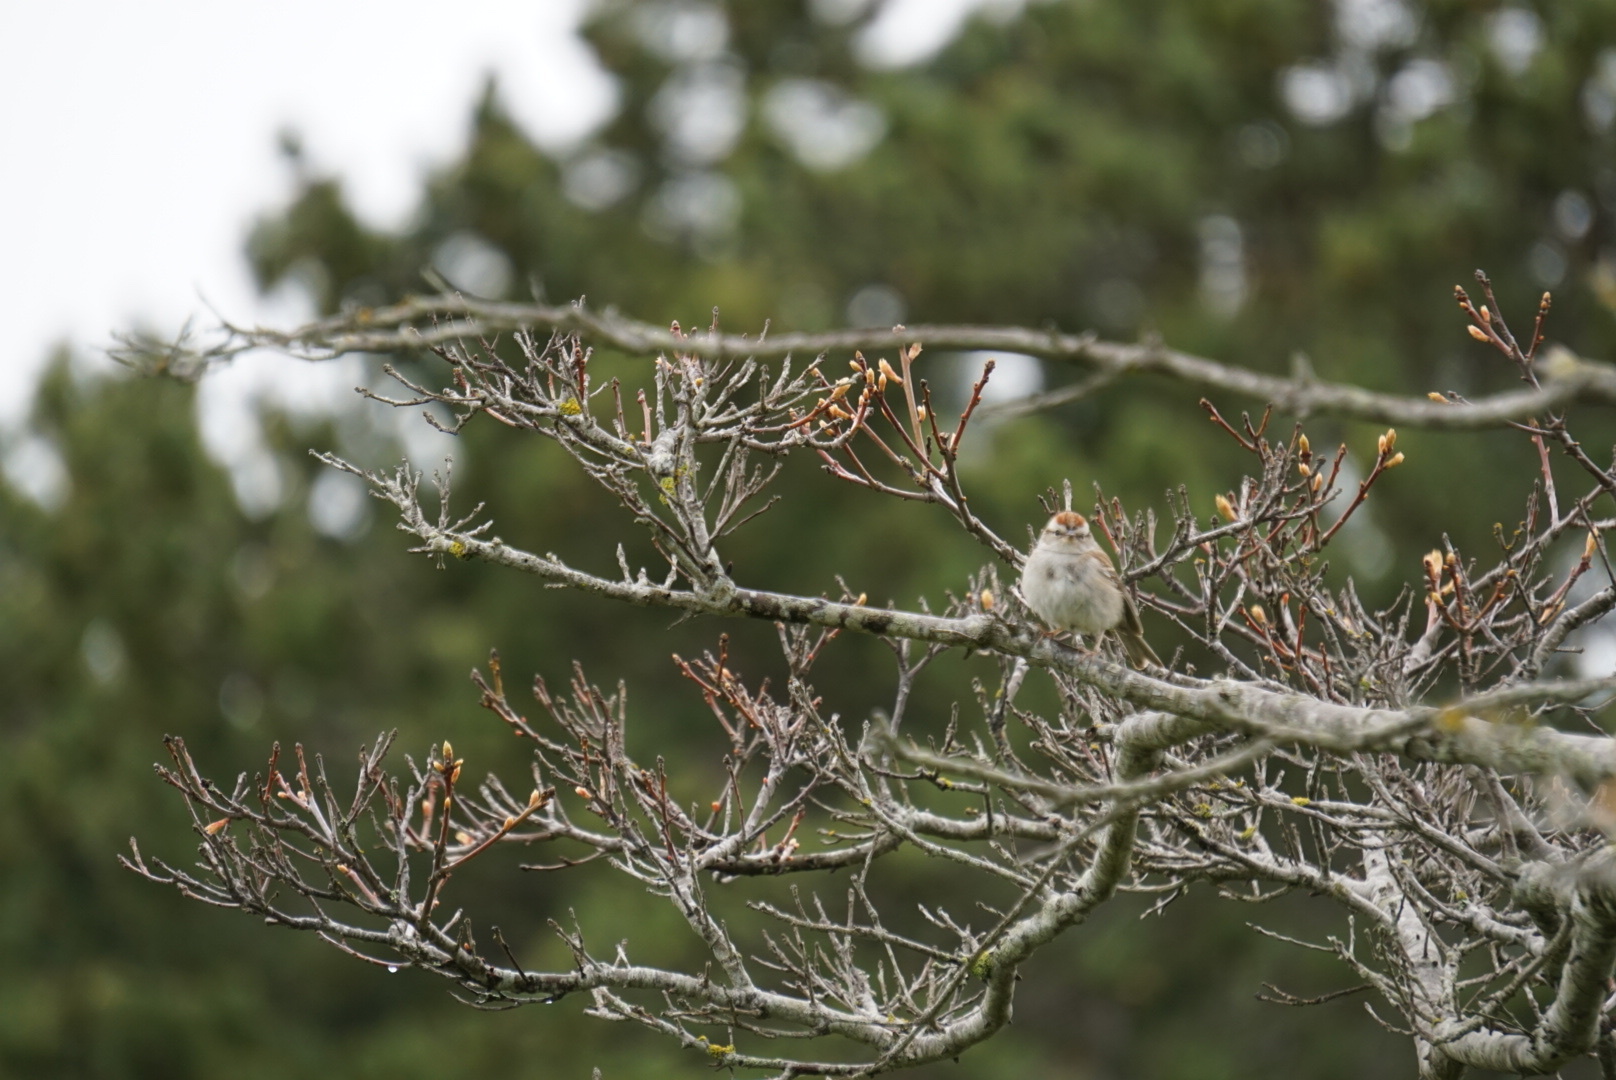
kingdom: Animalia
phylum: Chordata
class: Aves
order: Passeriformes
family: Passerellidae
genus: Spizella
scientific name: Spizella passerina
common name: Chipping sparrow
